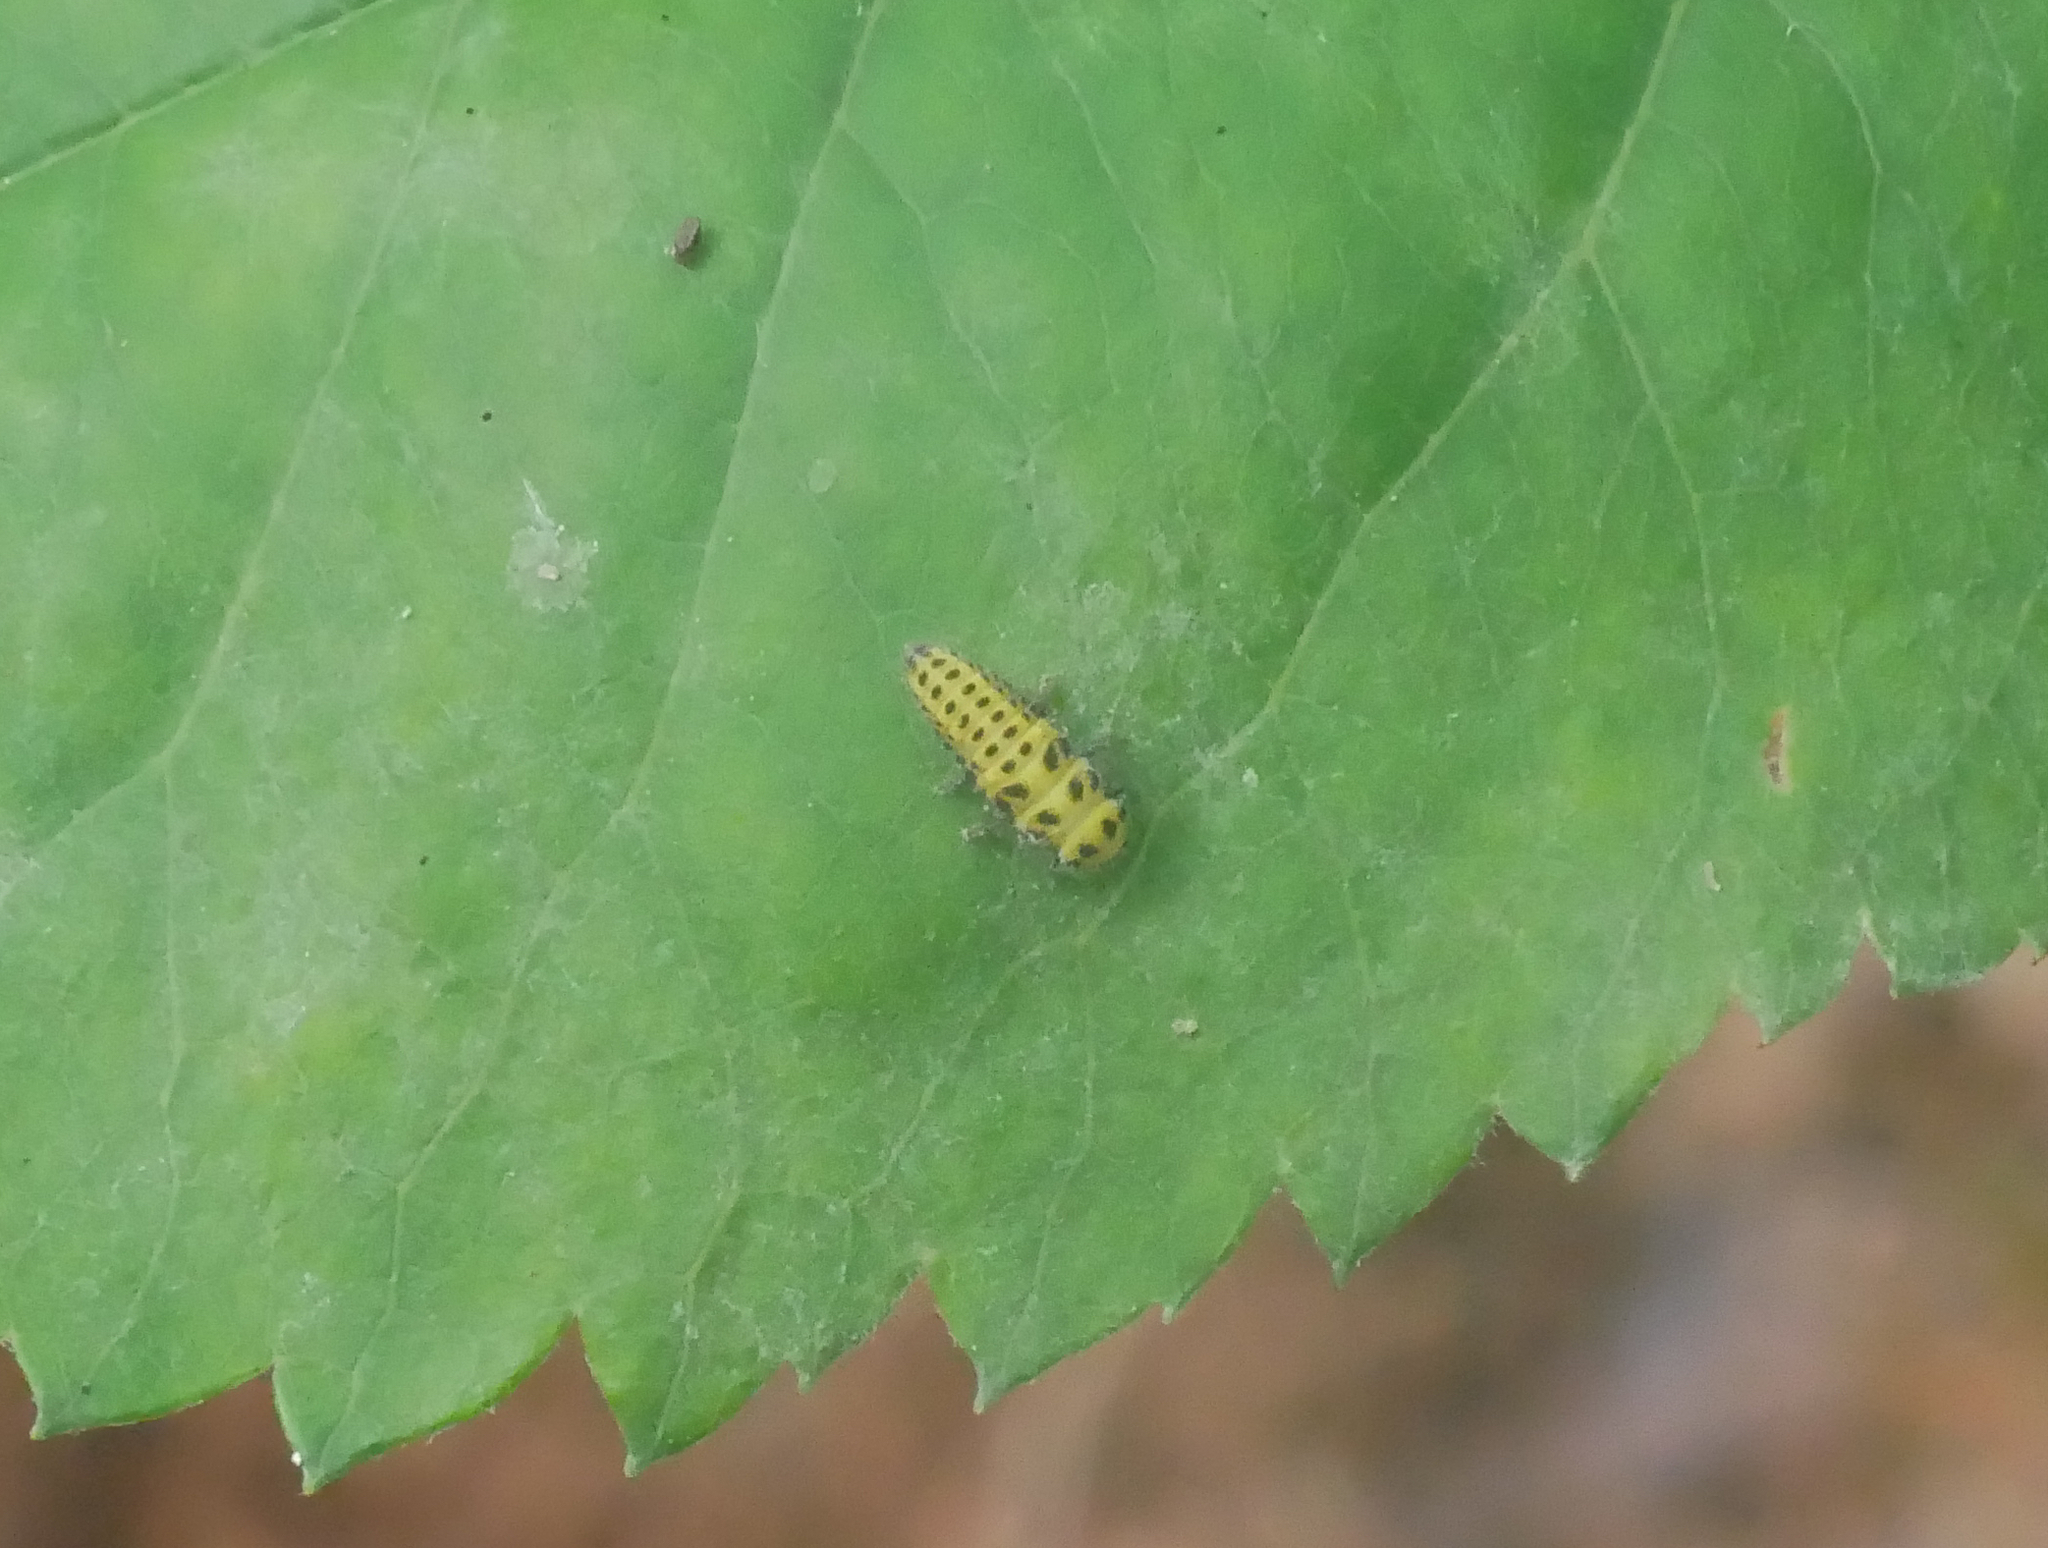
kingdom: Animalia
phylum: Arthropoda
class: Insecta
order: Coleoptera
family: Coccinellidae
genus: Psyllobora
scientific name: Psyllobora vigintiduopunctata
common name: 22-spot ladybird
